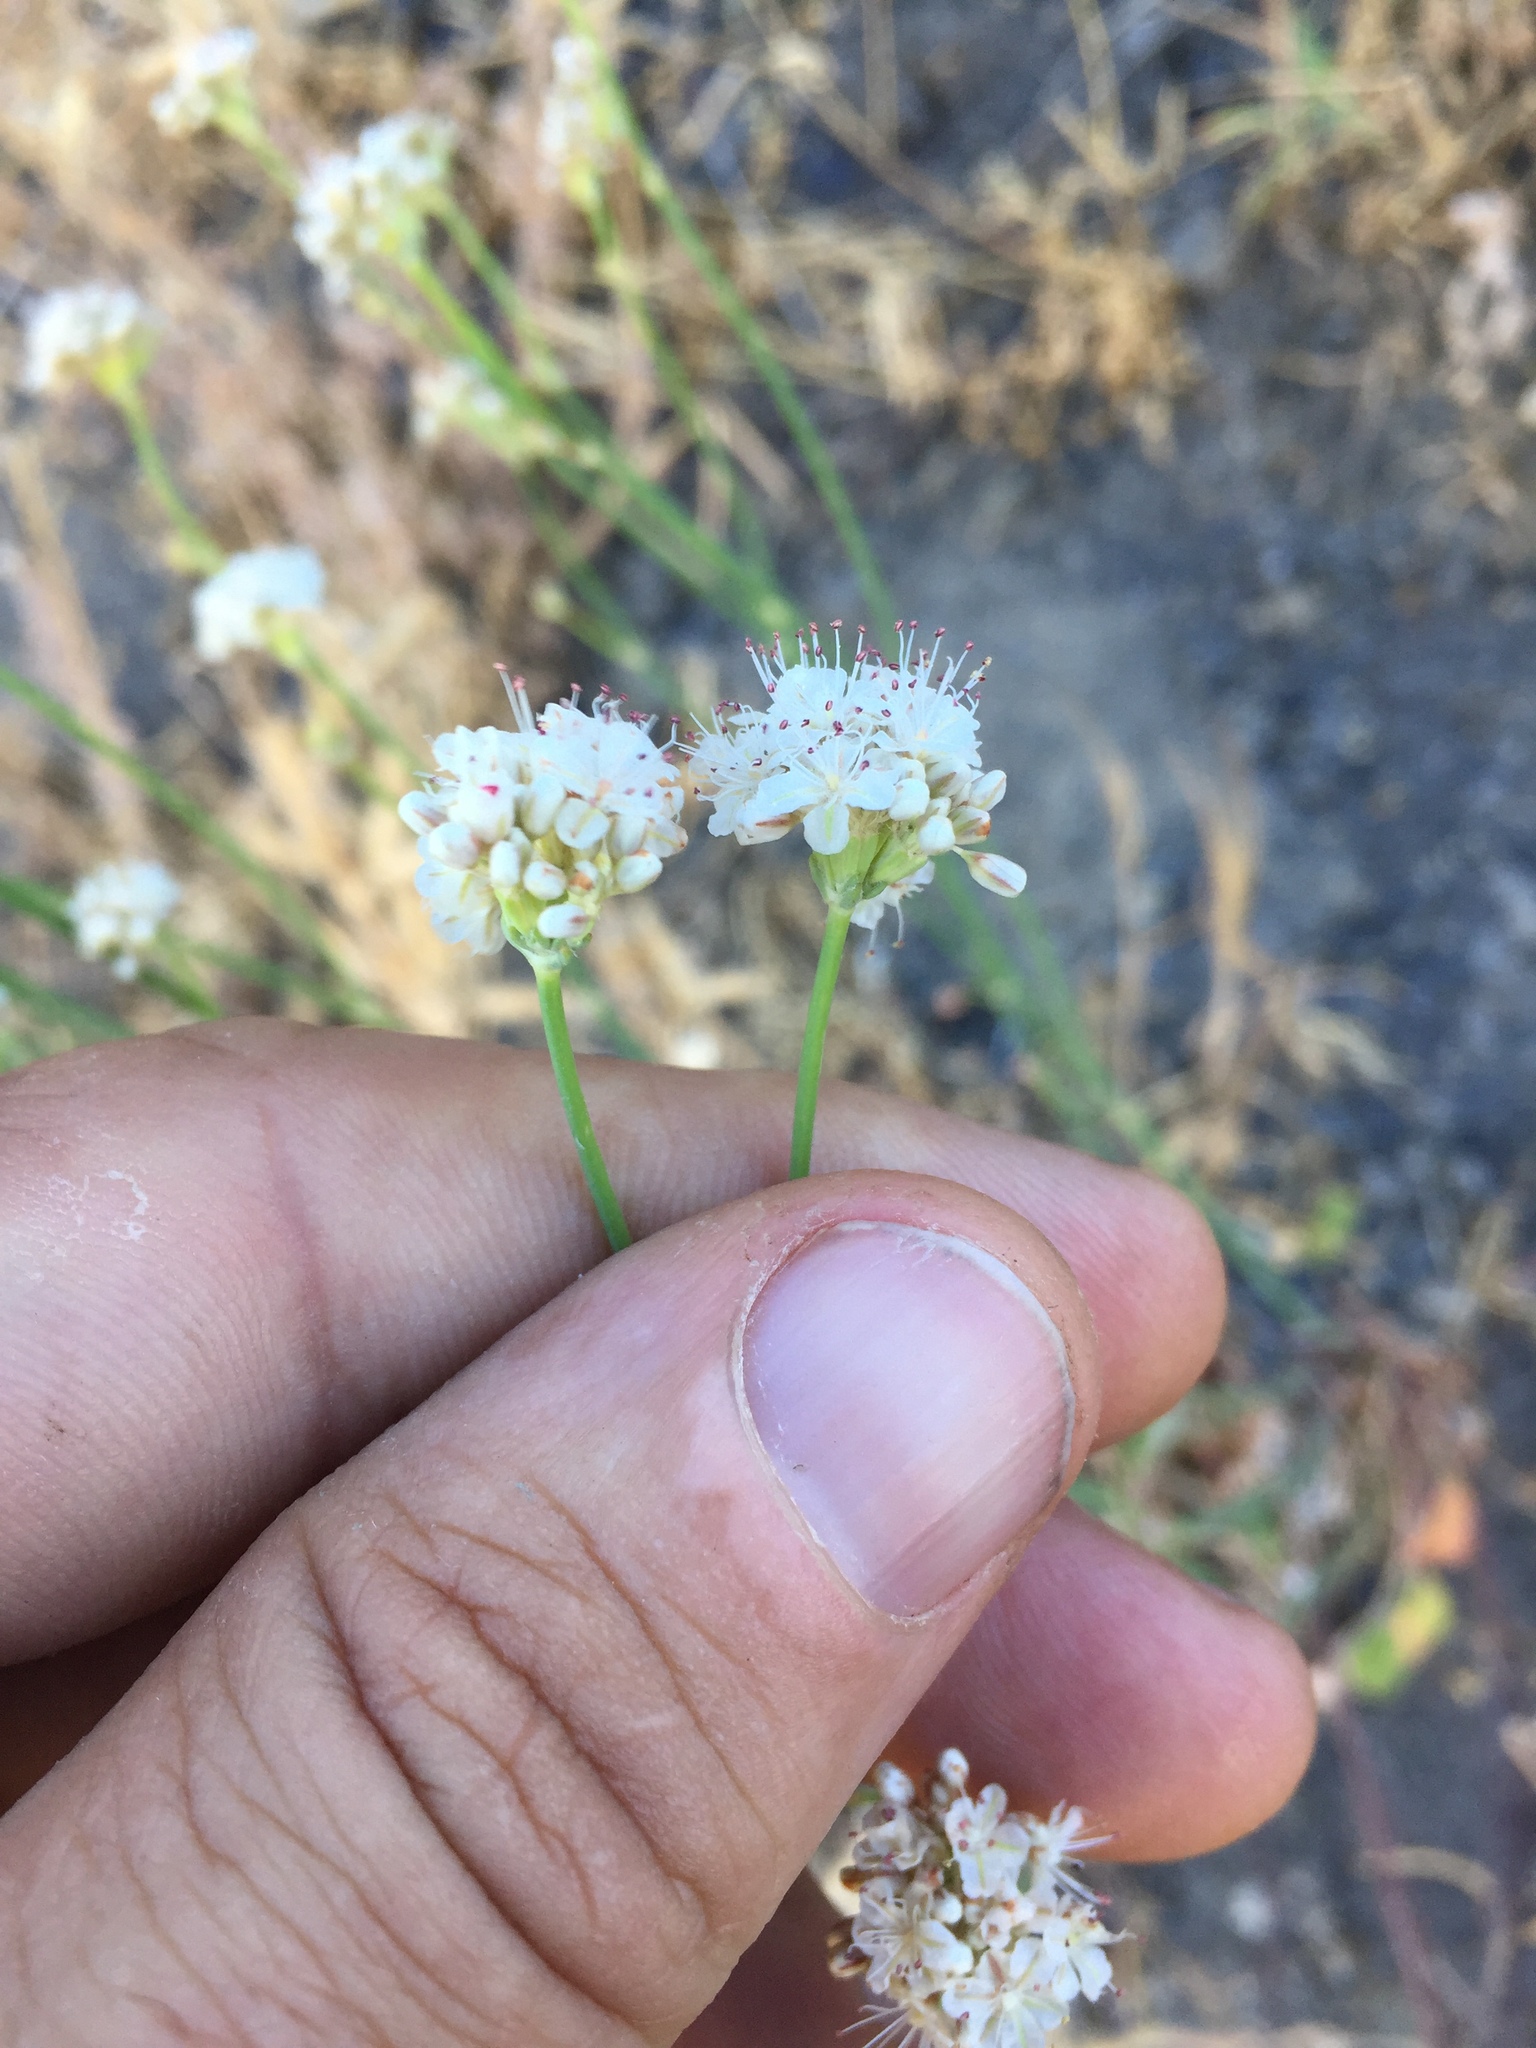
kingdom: Plantae
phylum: Tracheophyta
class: Magnoliopsida
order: Caryophyllales
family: Polygonaceae
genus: Eriogonum
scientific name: Eriogonum nudum
